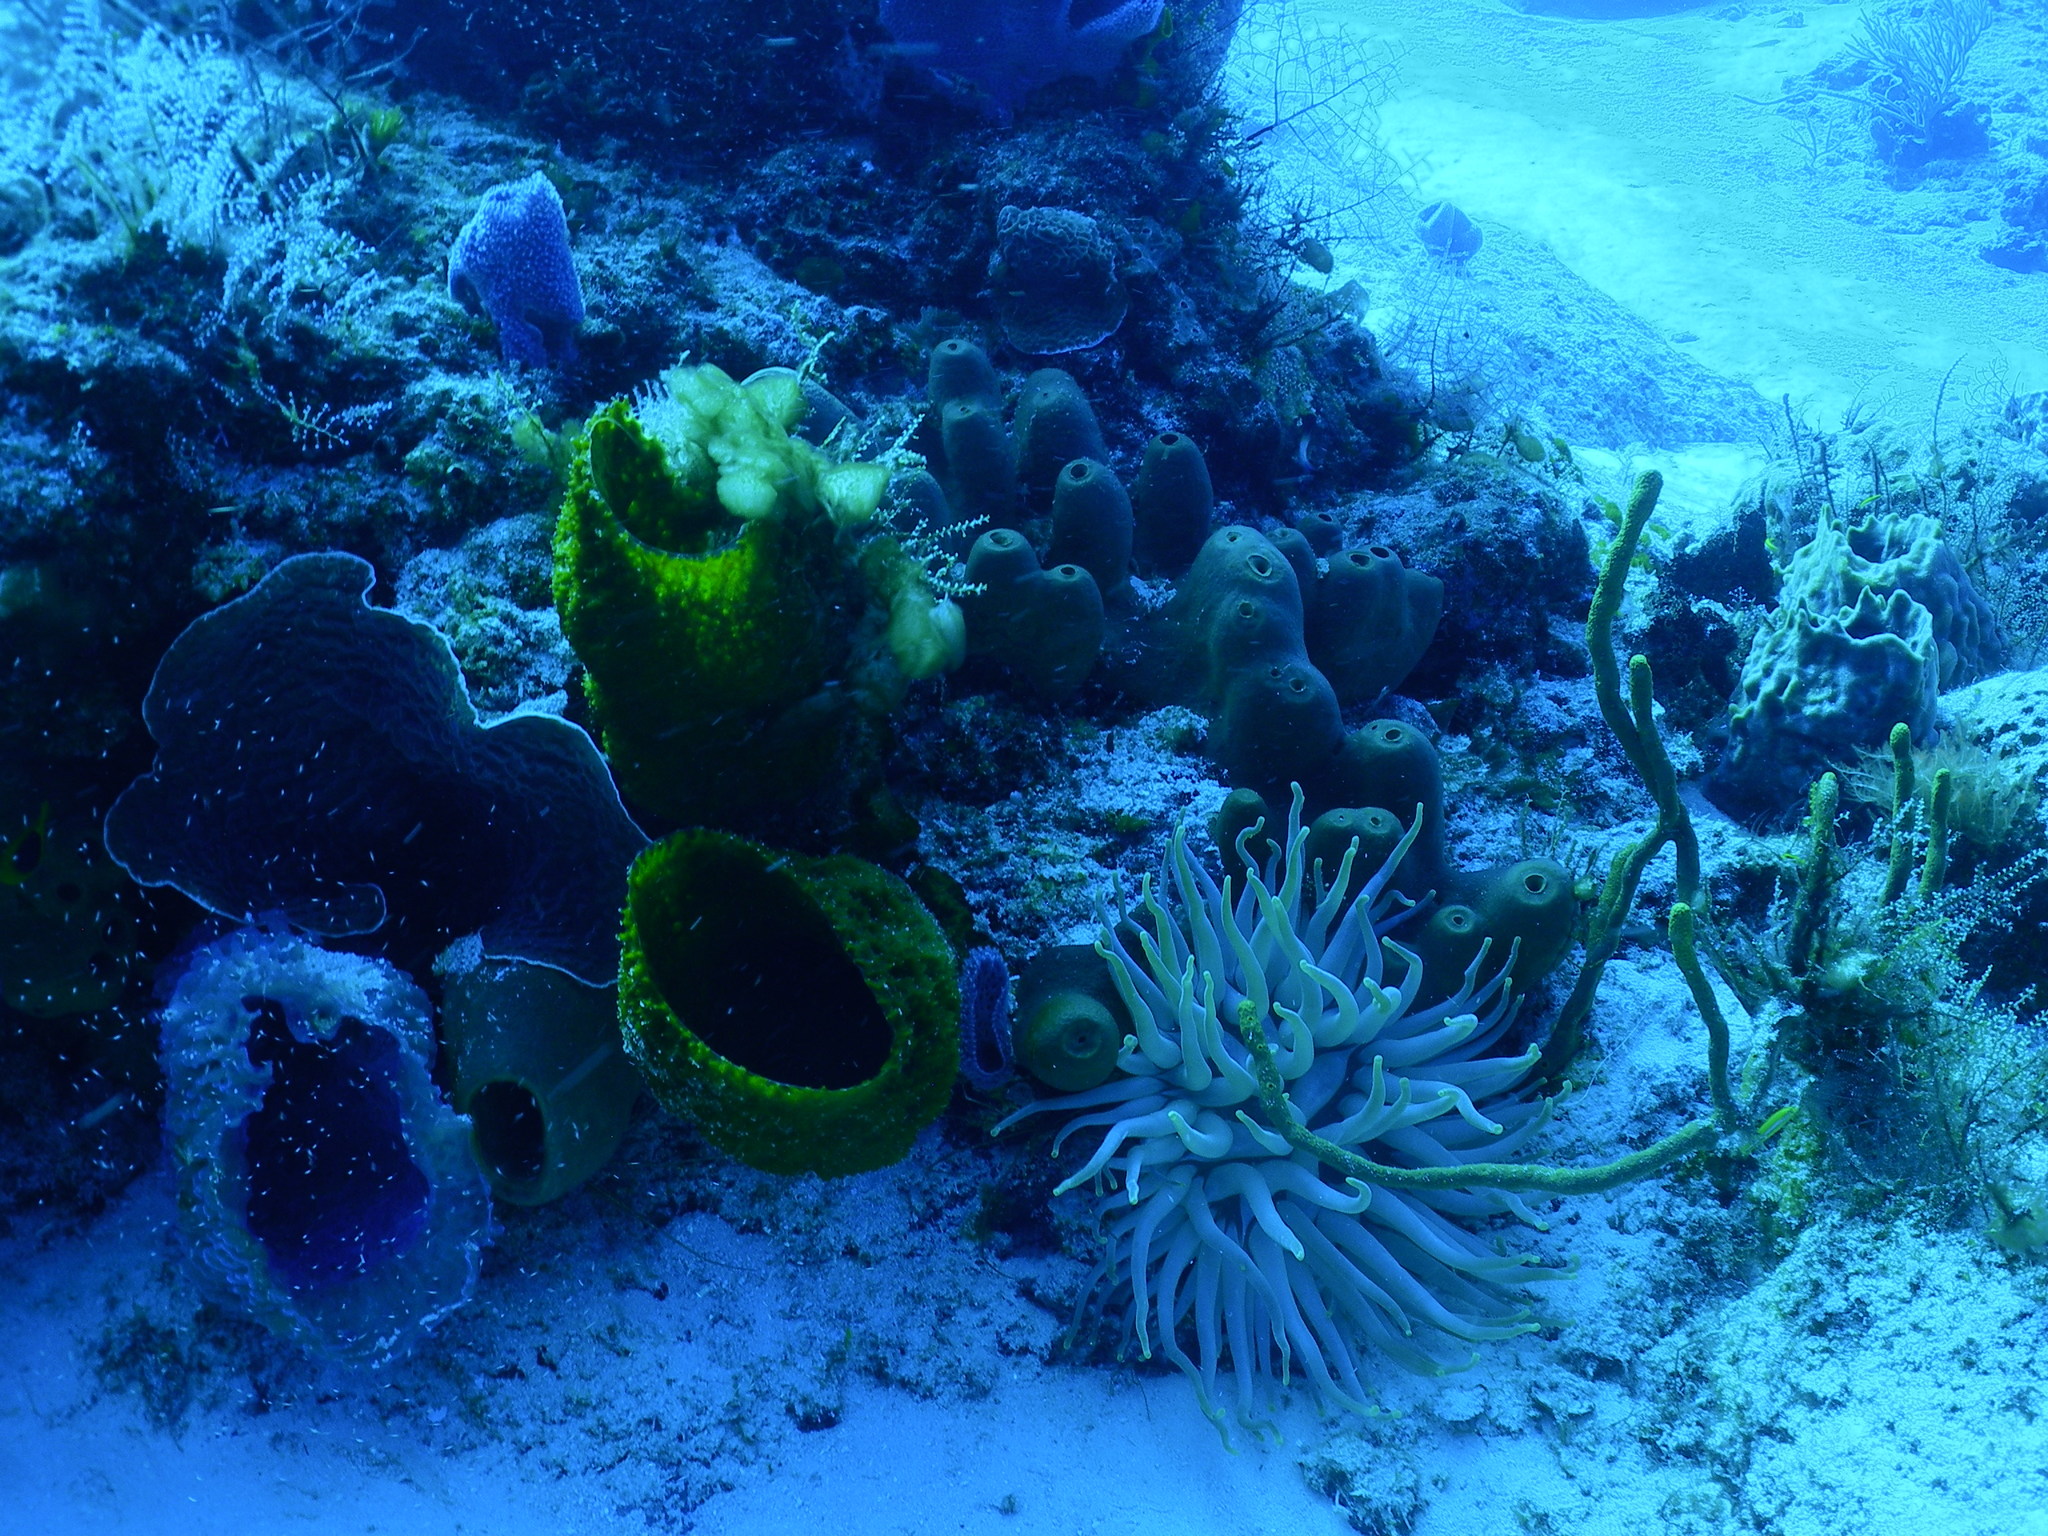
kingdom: Animalia
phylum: Cnidaria
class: Anthozoa
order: Actiniaria
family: Actiniidae
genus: Condylactis
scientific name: Condylactis gigantea
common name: Giant caribbean anemone
